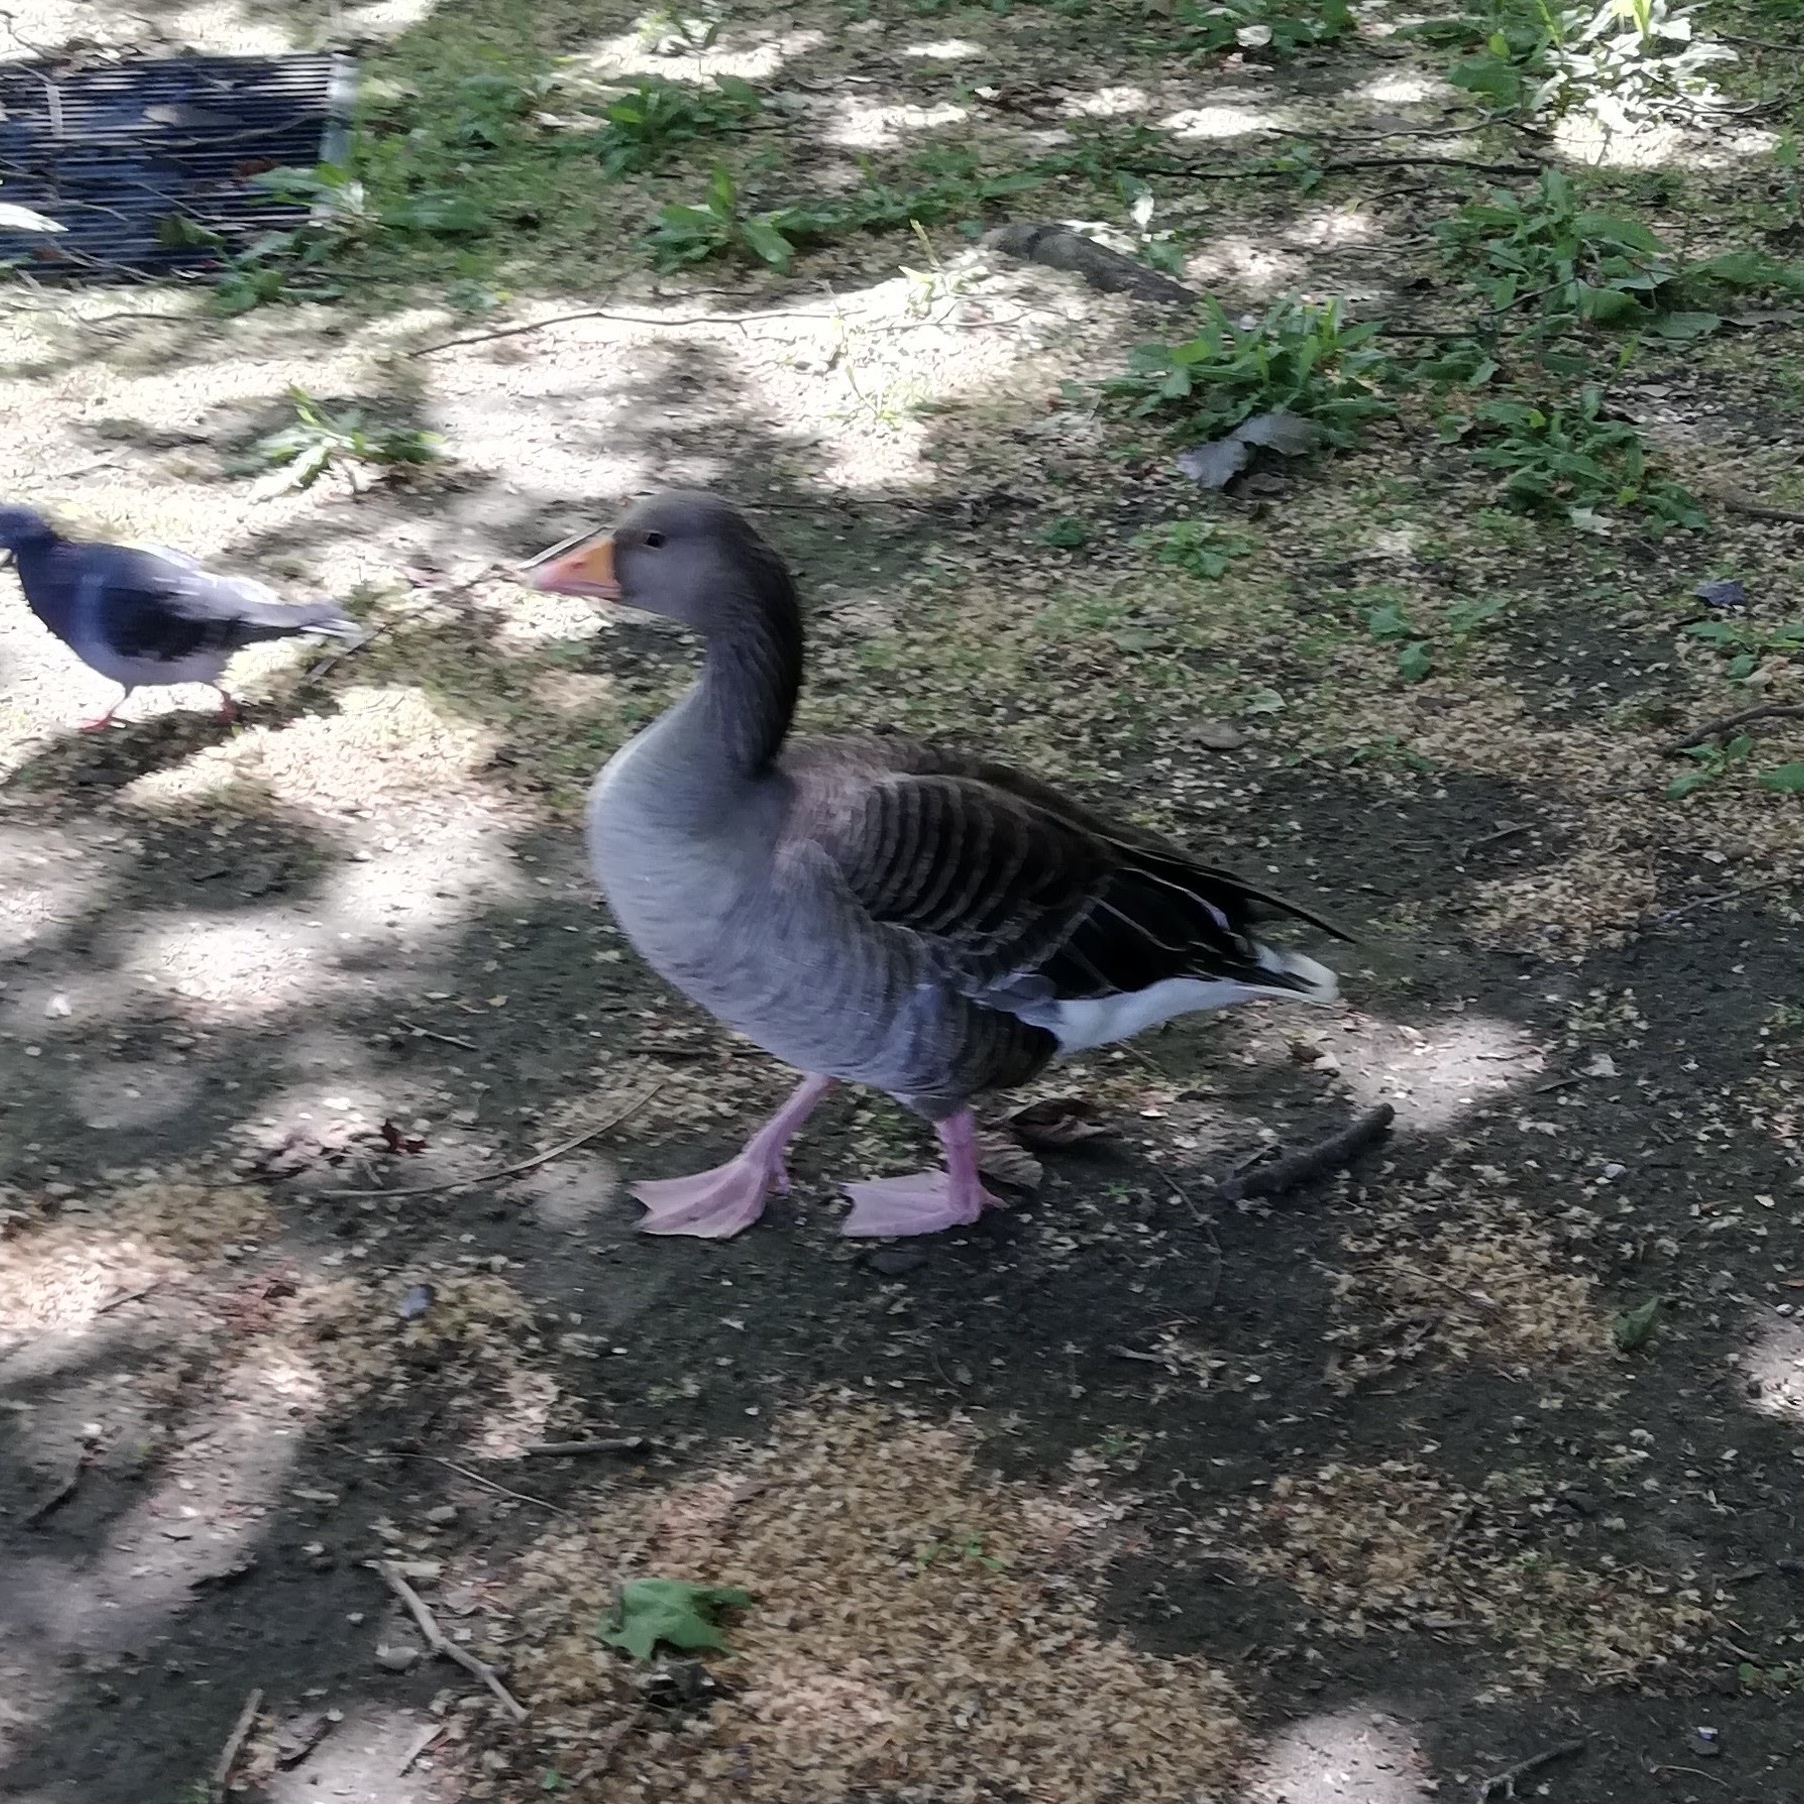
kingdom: Animalia
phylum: Chordata
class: Aves
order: Anseriformes
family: Anatidae
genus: Anser
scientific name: Anser anser
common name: Greylag goose
